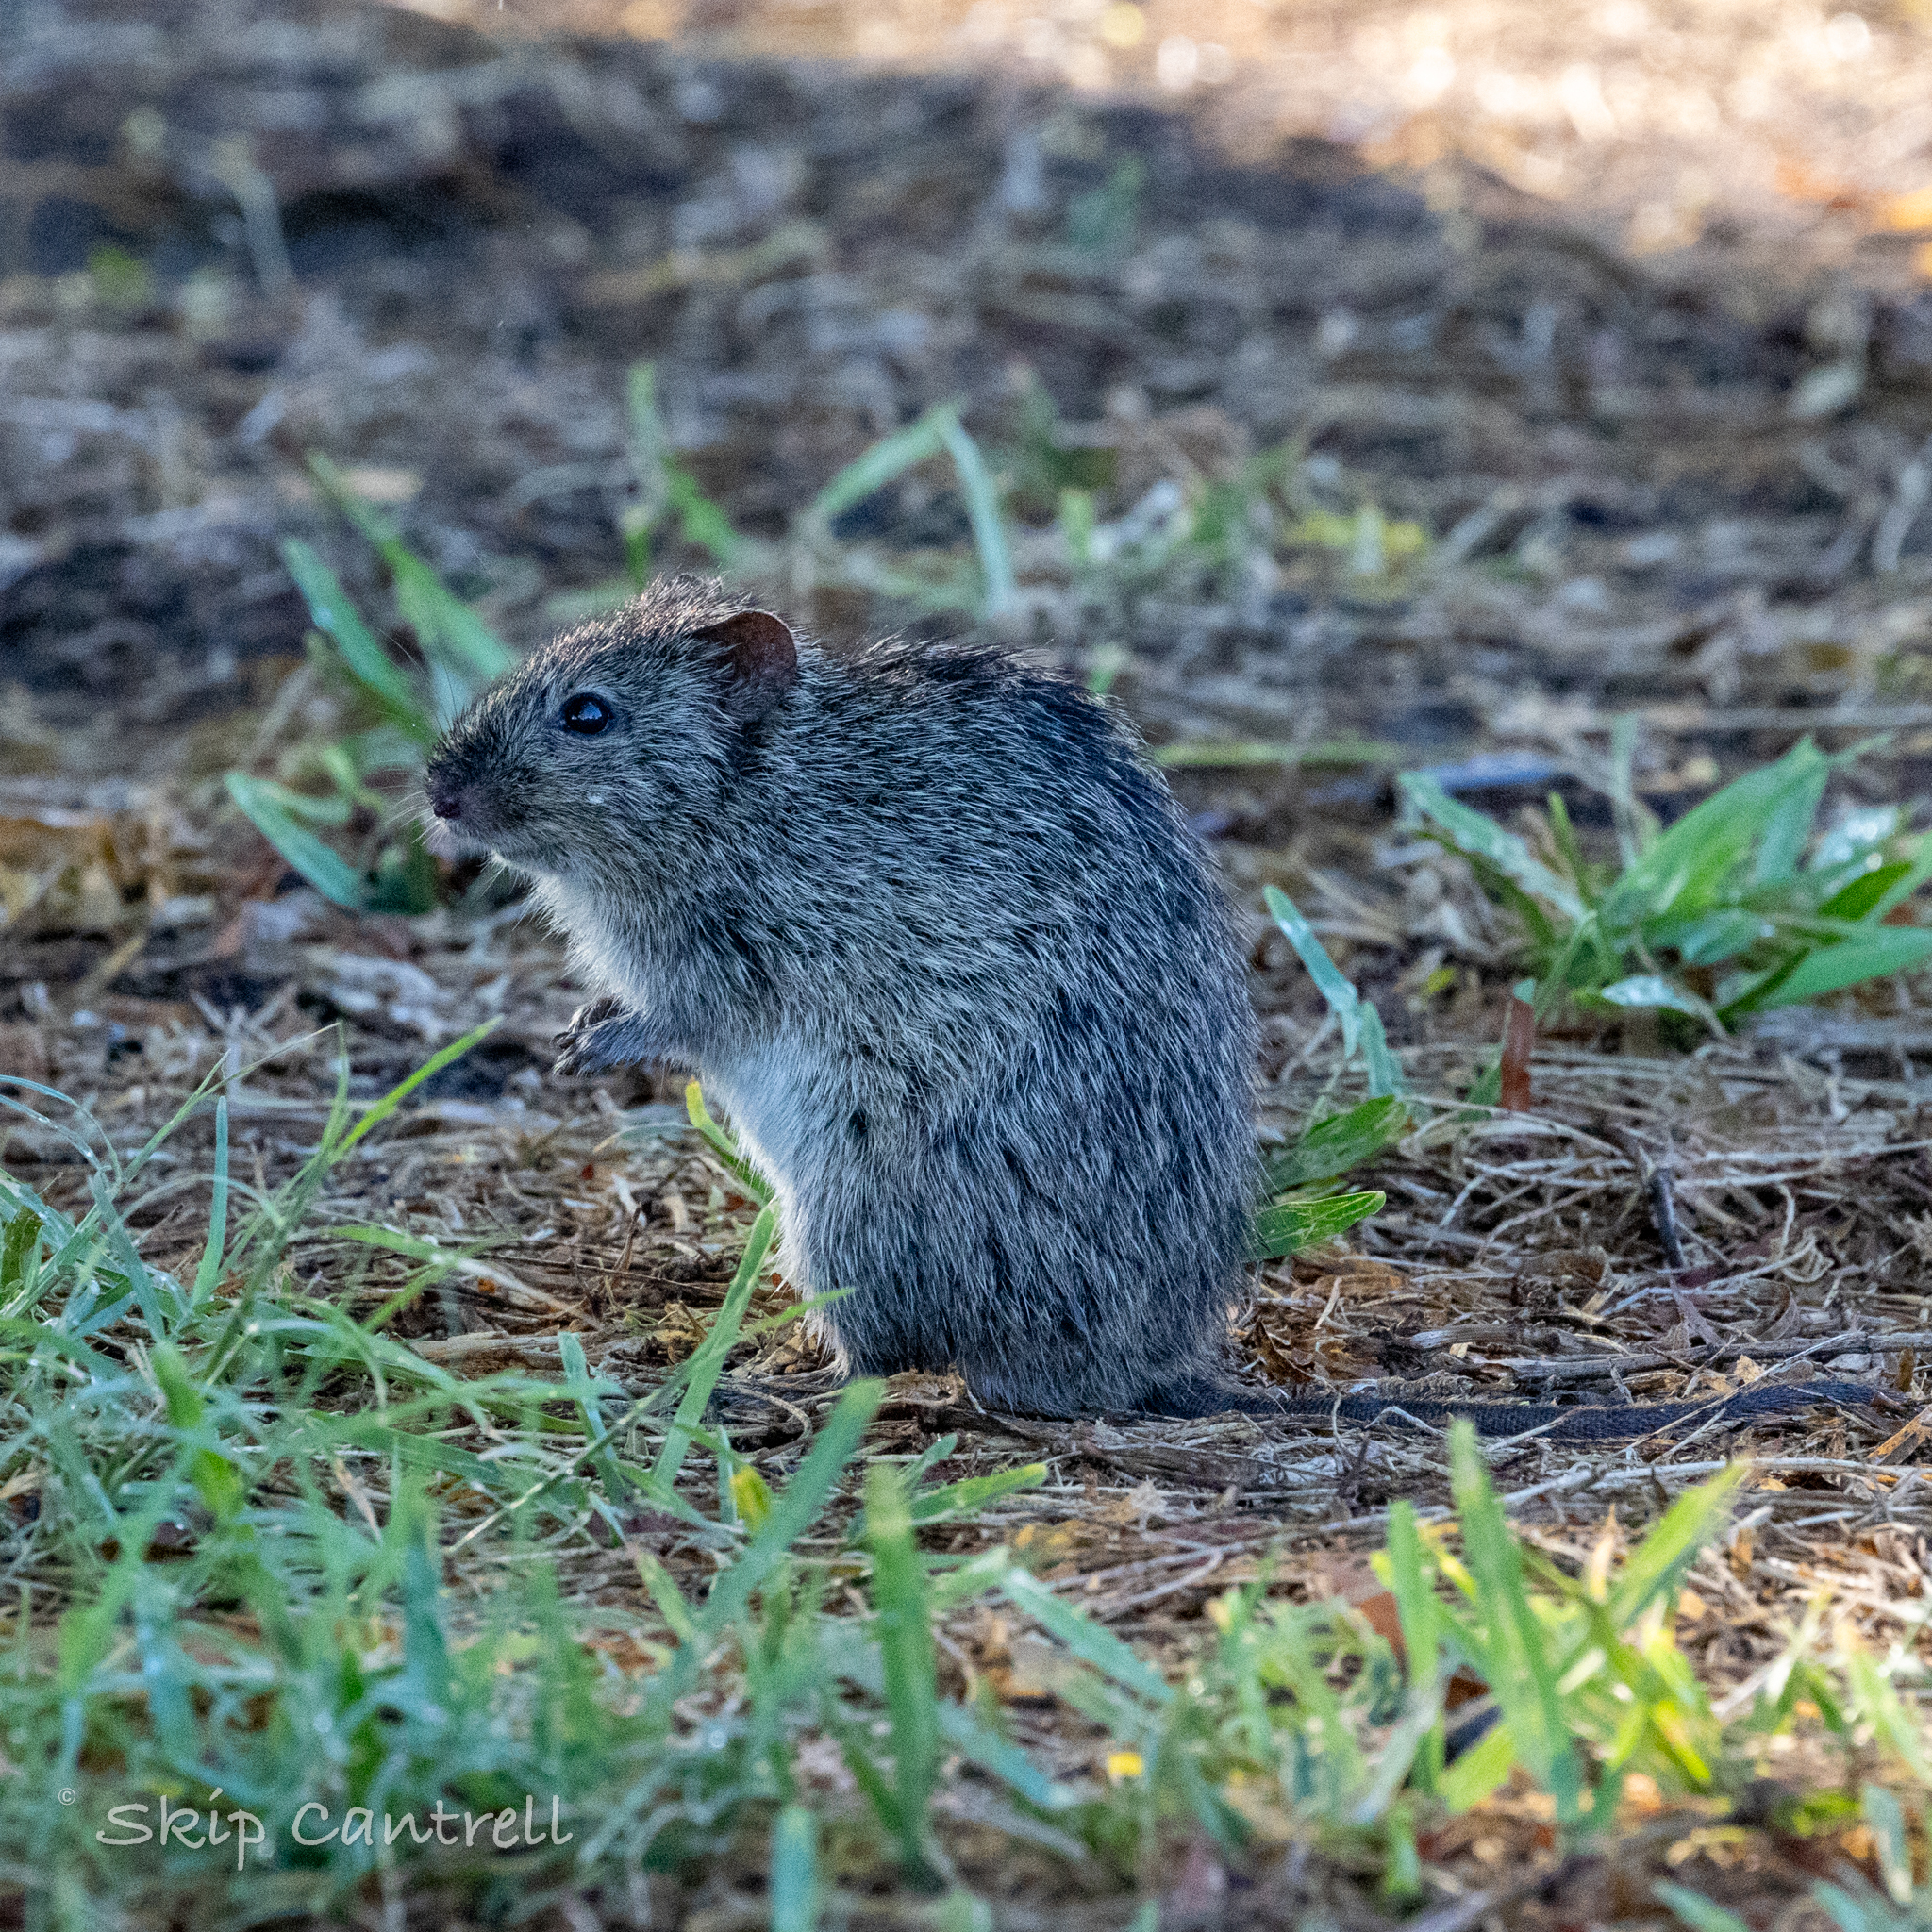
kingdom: Animalia
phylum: Chordata
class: Mammalia
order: Rodentia
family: Cricetidae
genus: Sigmodon
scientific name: Sigmodon hispidus
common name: Hispid cotton rat
